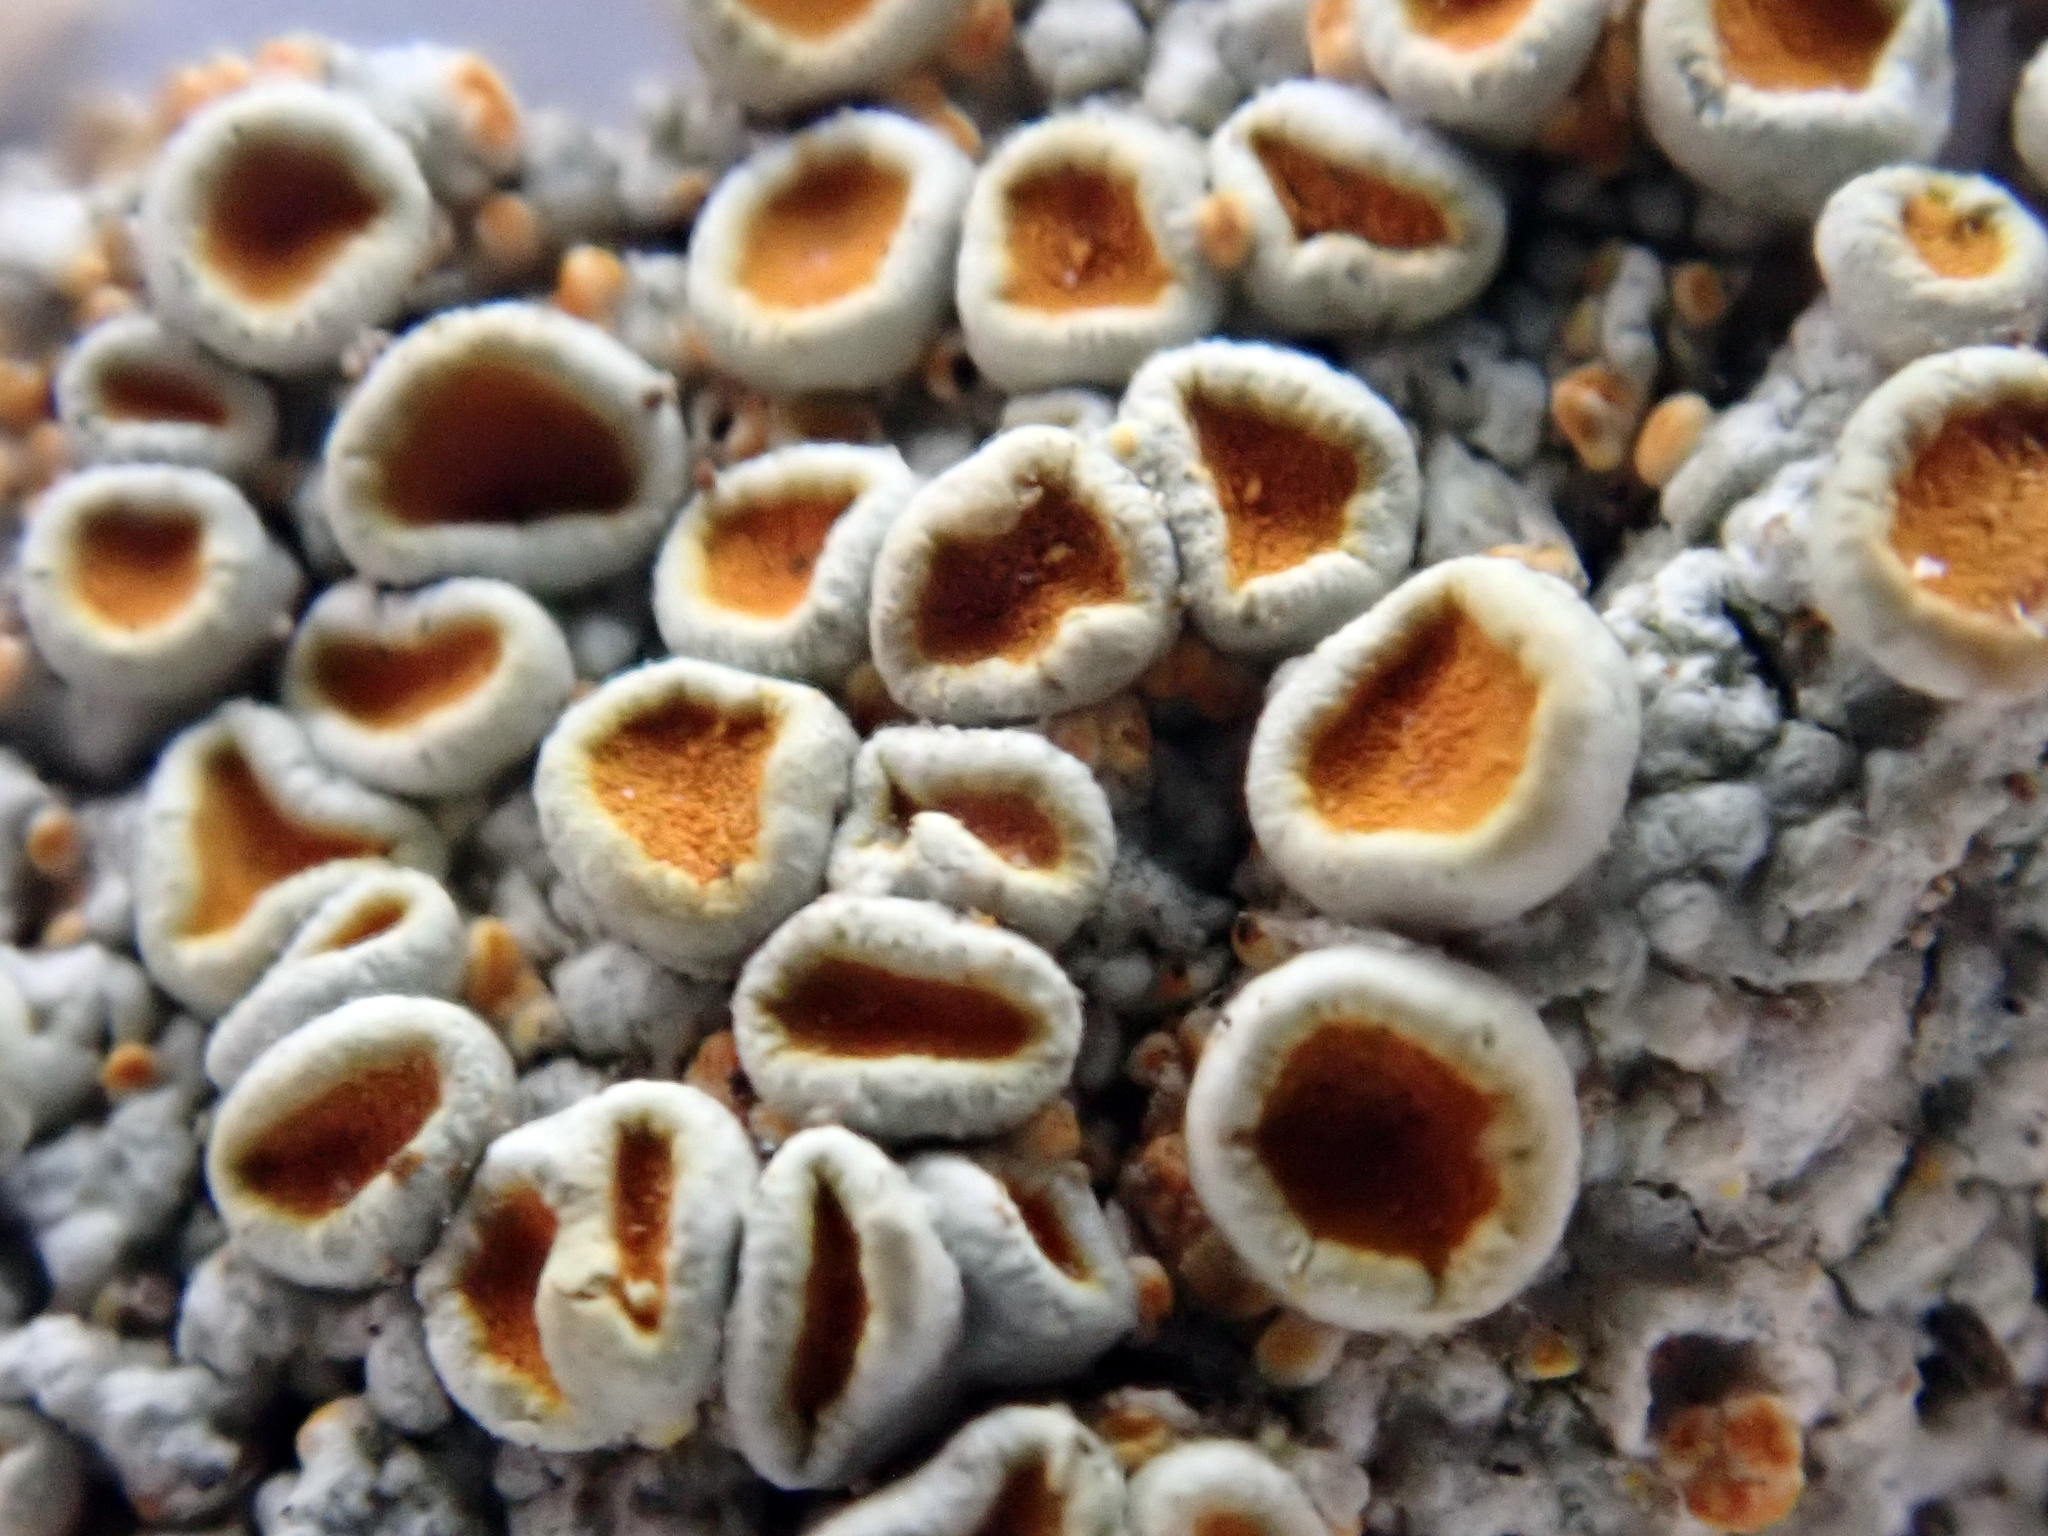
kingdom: Fungi
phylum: Ascomycota
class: Lecanoromycetes
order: Teloschistales
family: Brigantiaeaceae
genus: Brigantiaea
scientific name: Brigantiaea chrysosticta
